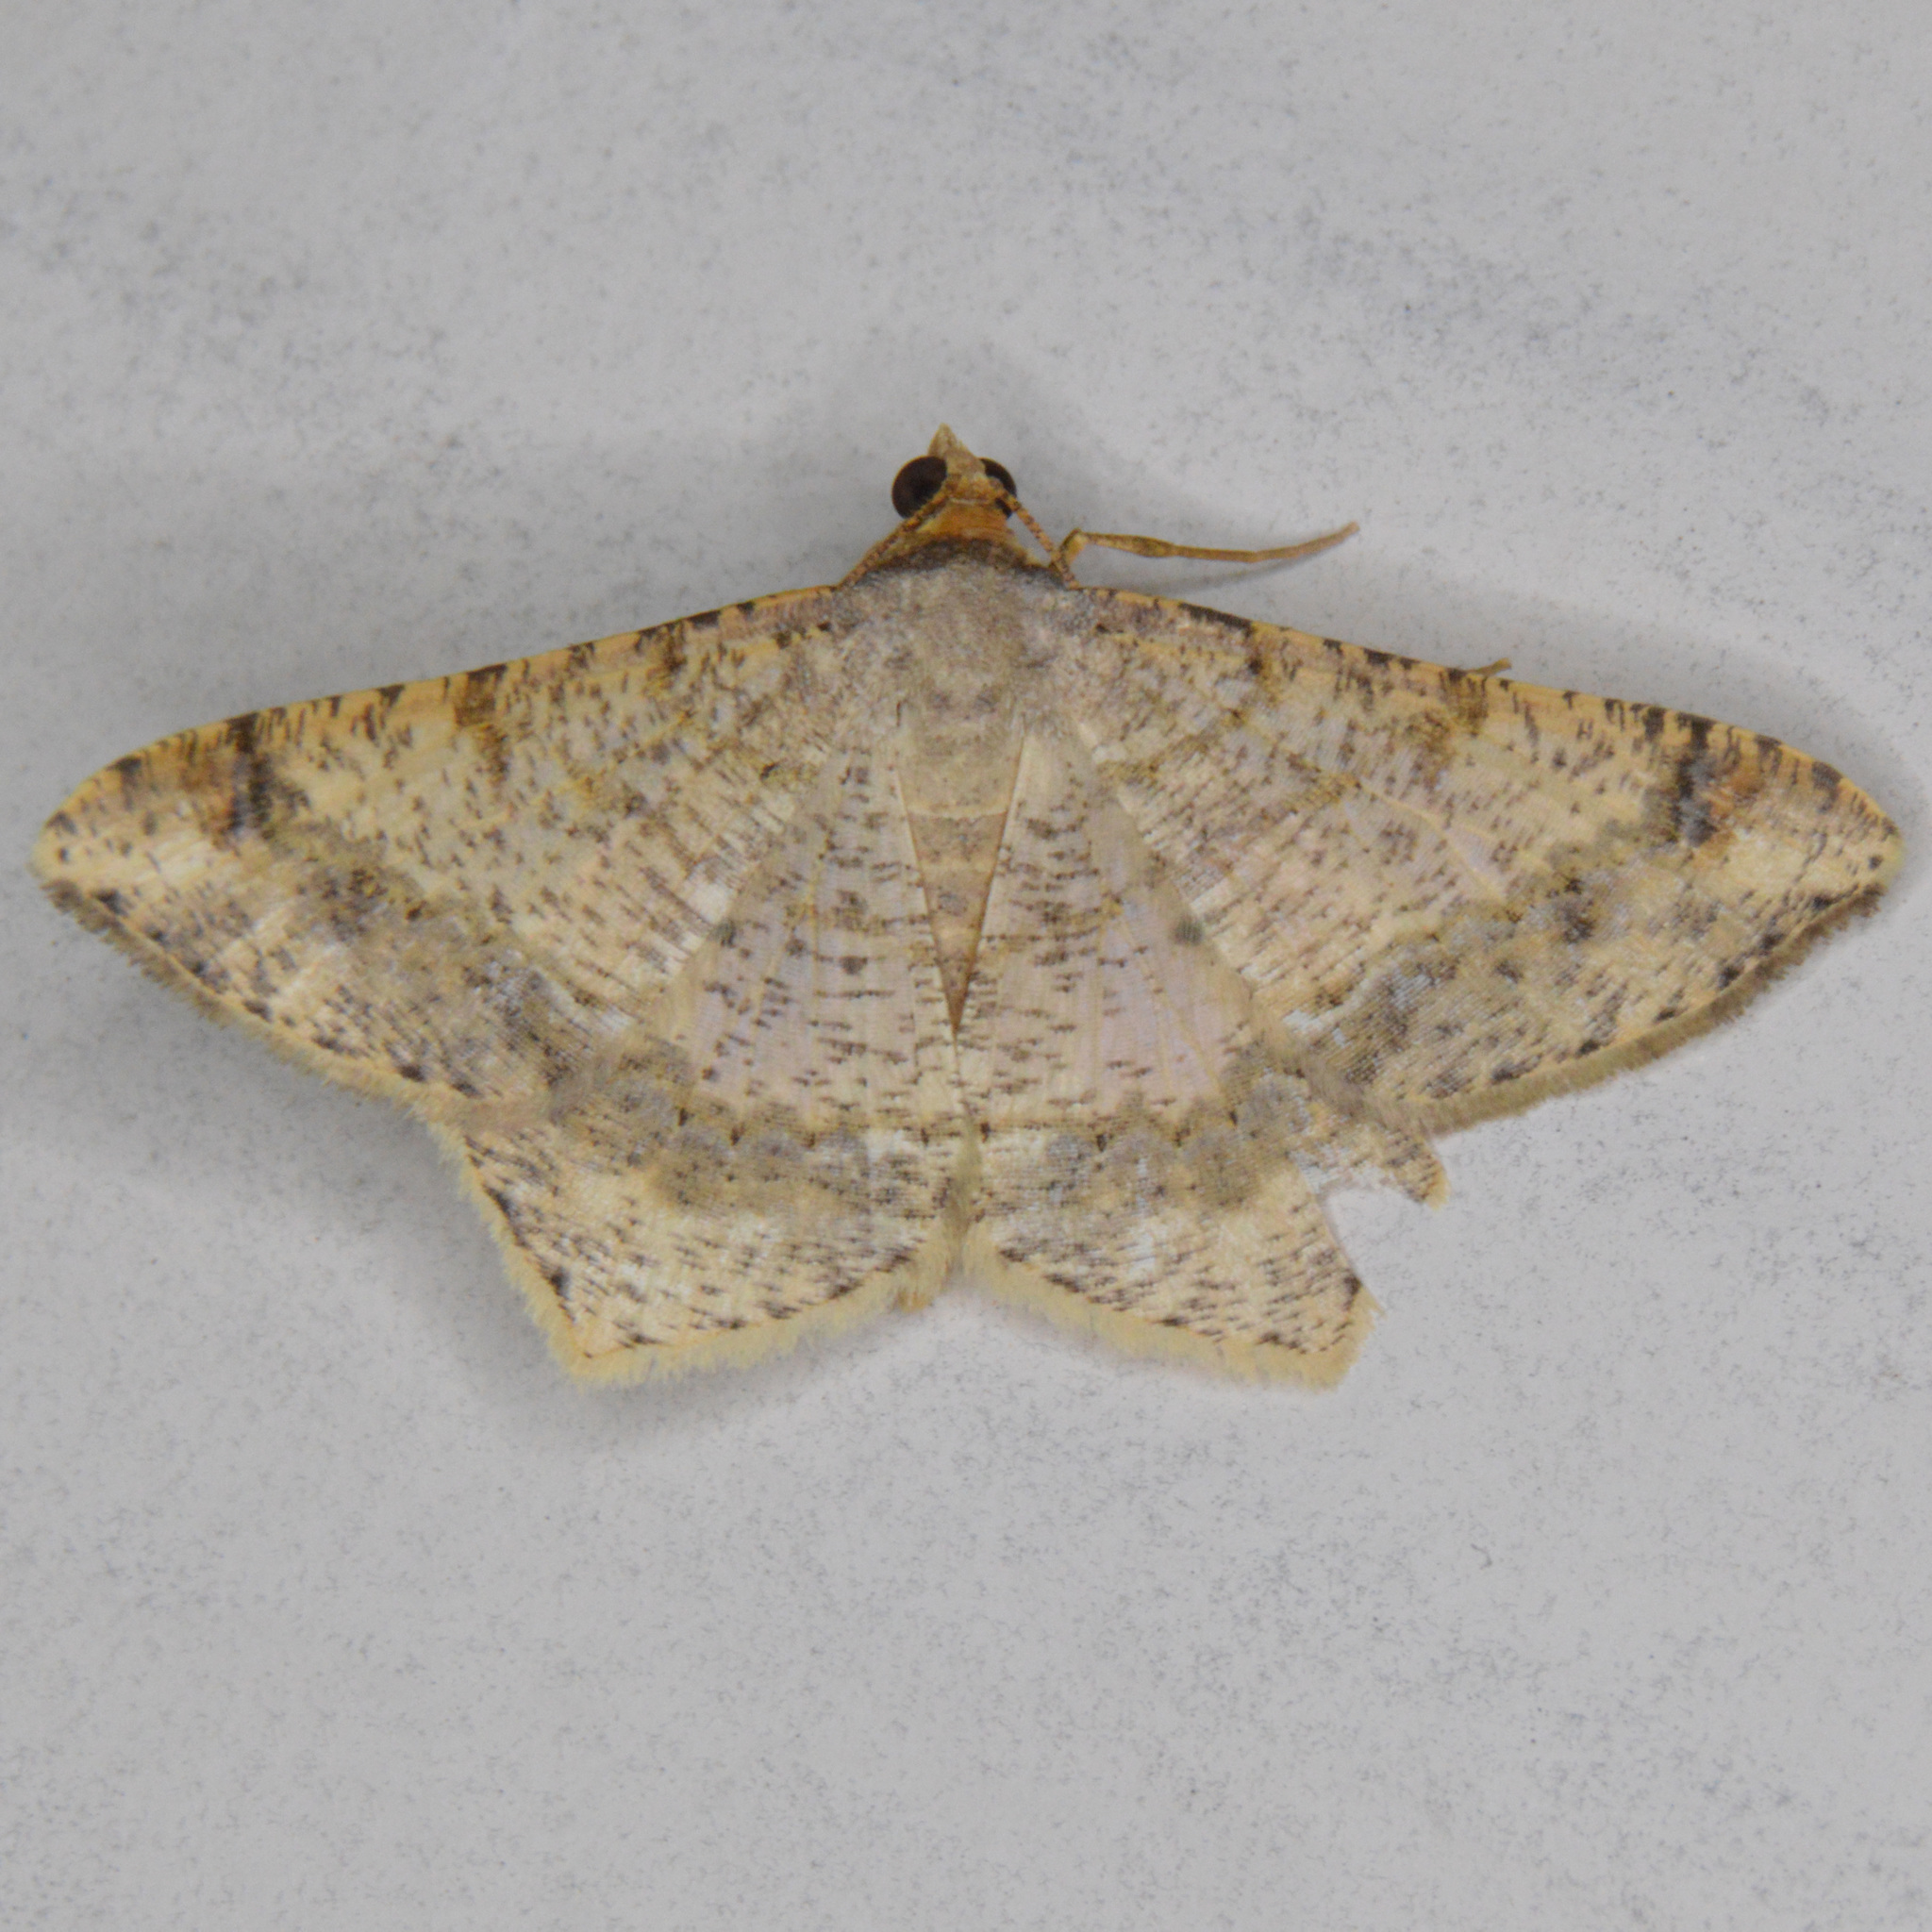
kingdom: Animalia
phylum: Arthropoda
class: Insecta
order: Lepidoptera
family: Geometridae
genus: Macaria
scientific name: Macaria abydata
